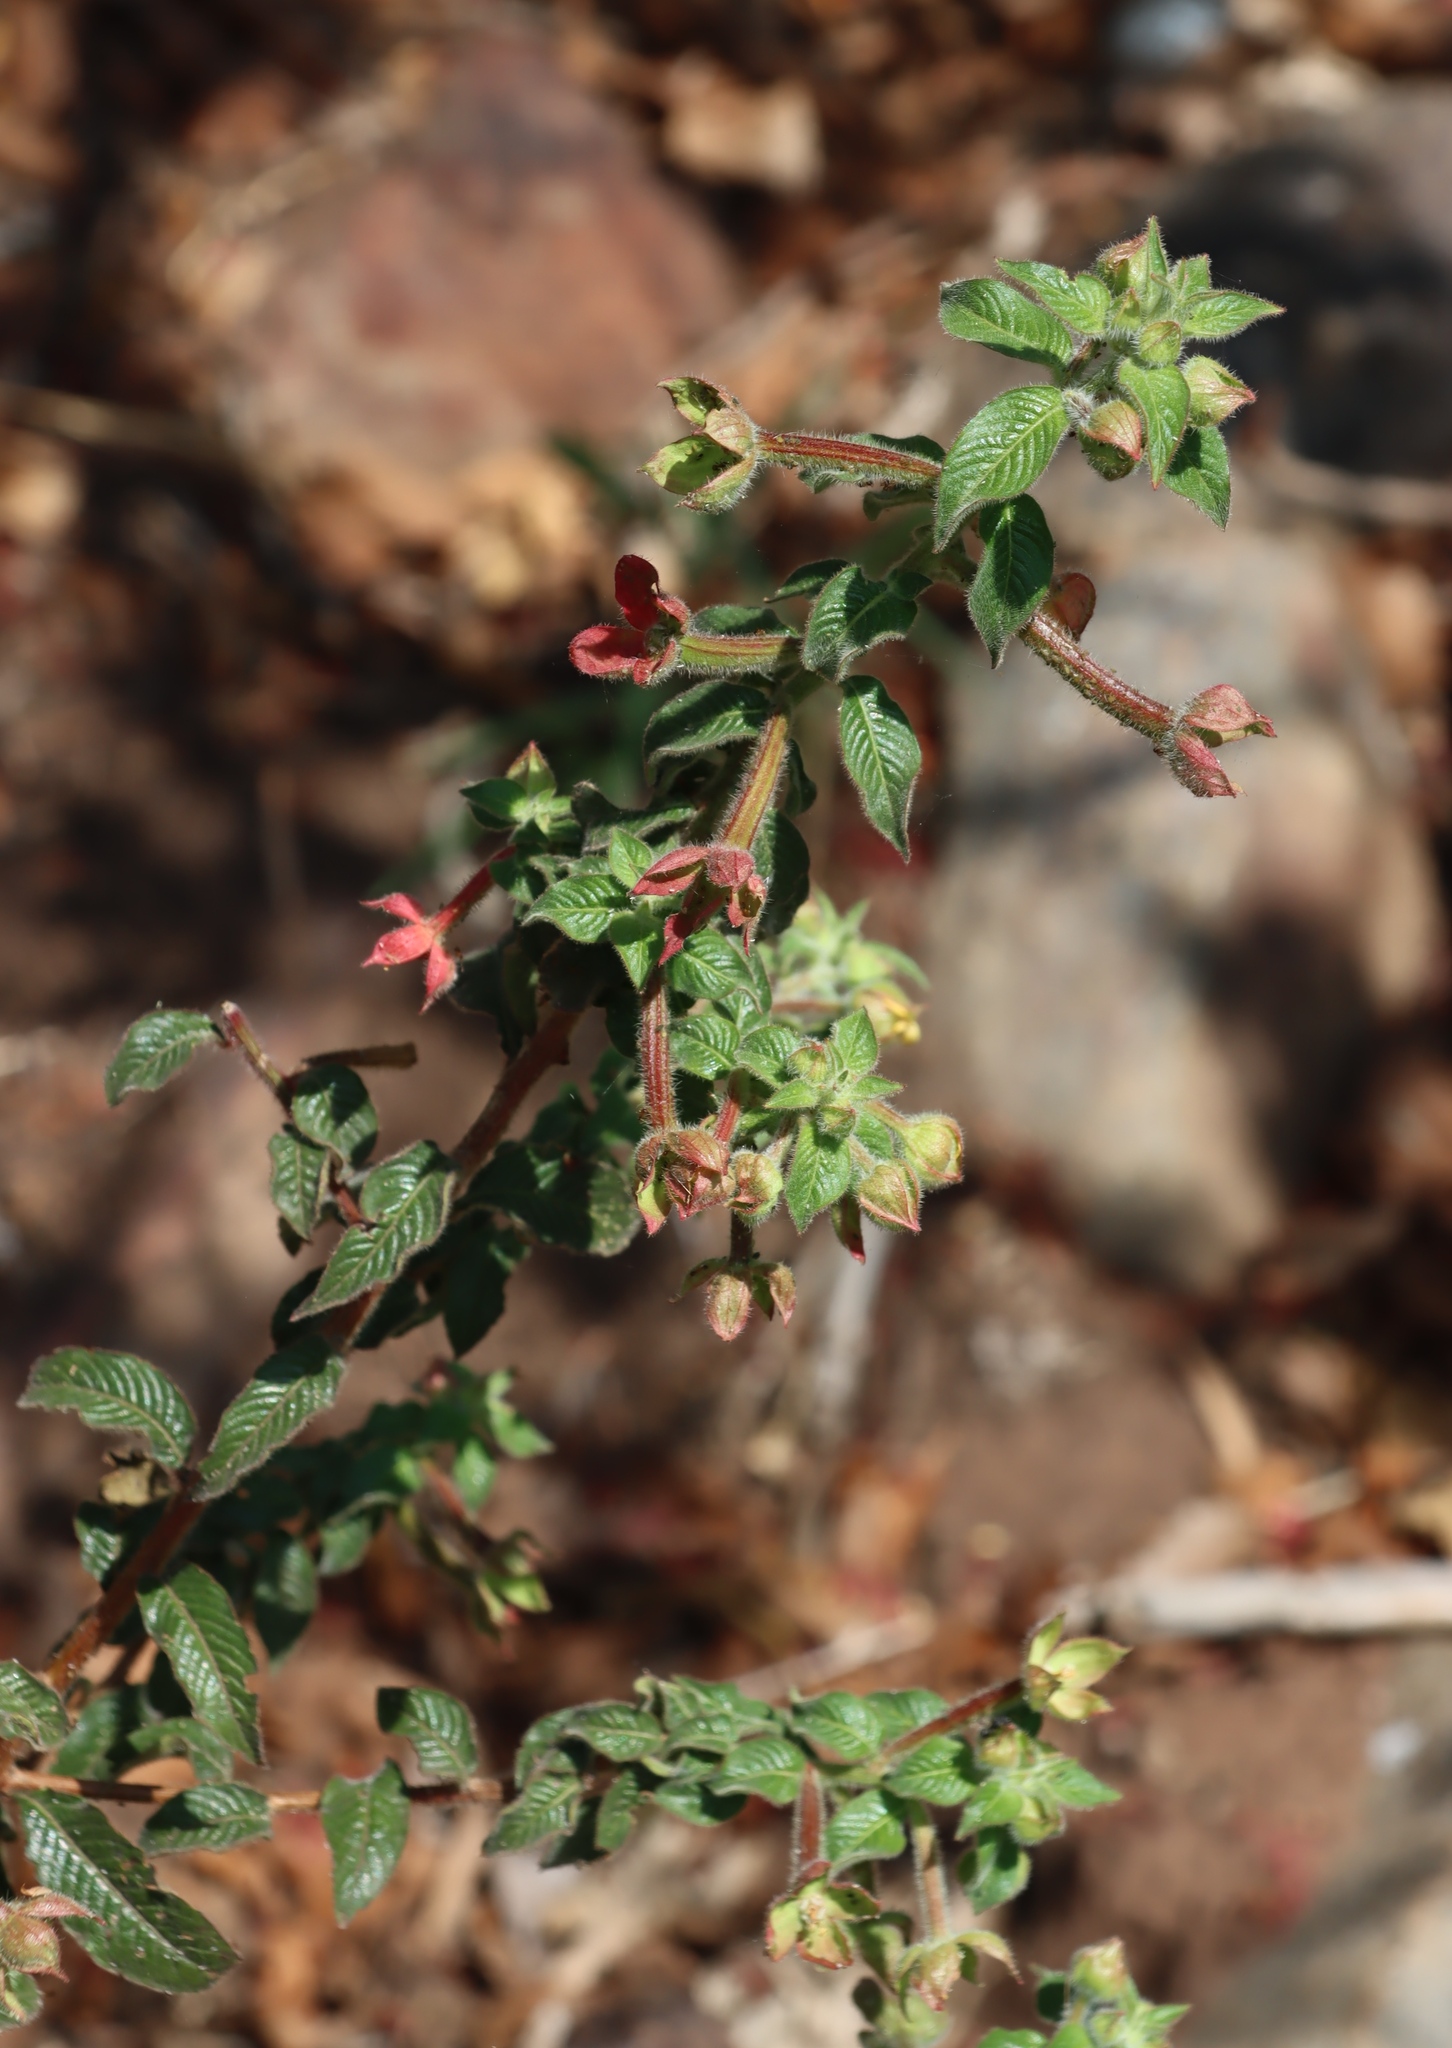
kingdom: Plantae
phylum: Tracheophyta
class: Magnoliopsida
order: Myrtales
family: Onagraceae
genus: Ludwigia
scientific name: Ludwigia octovalvis
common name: Water-primrose
